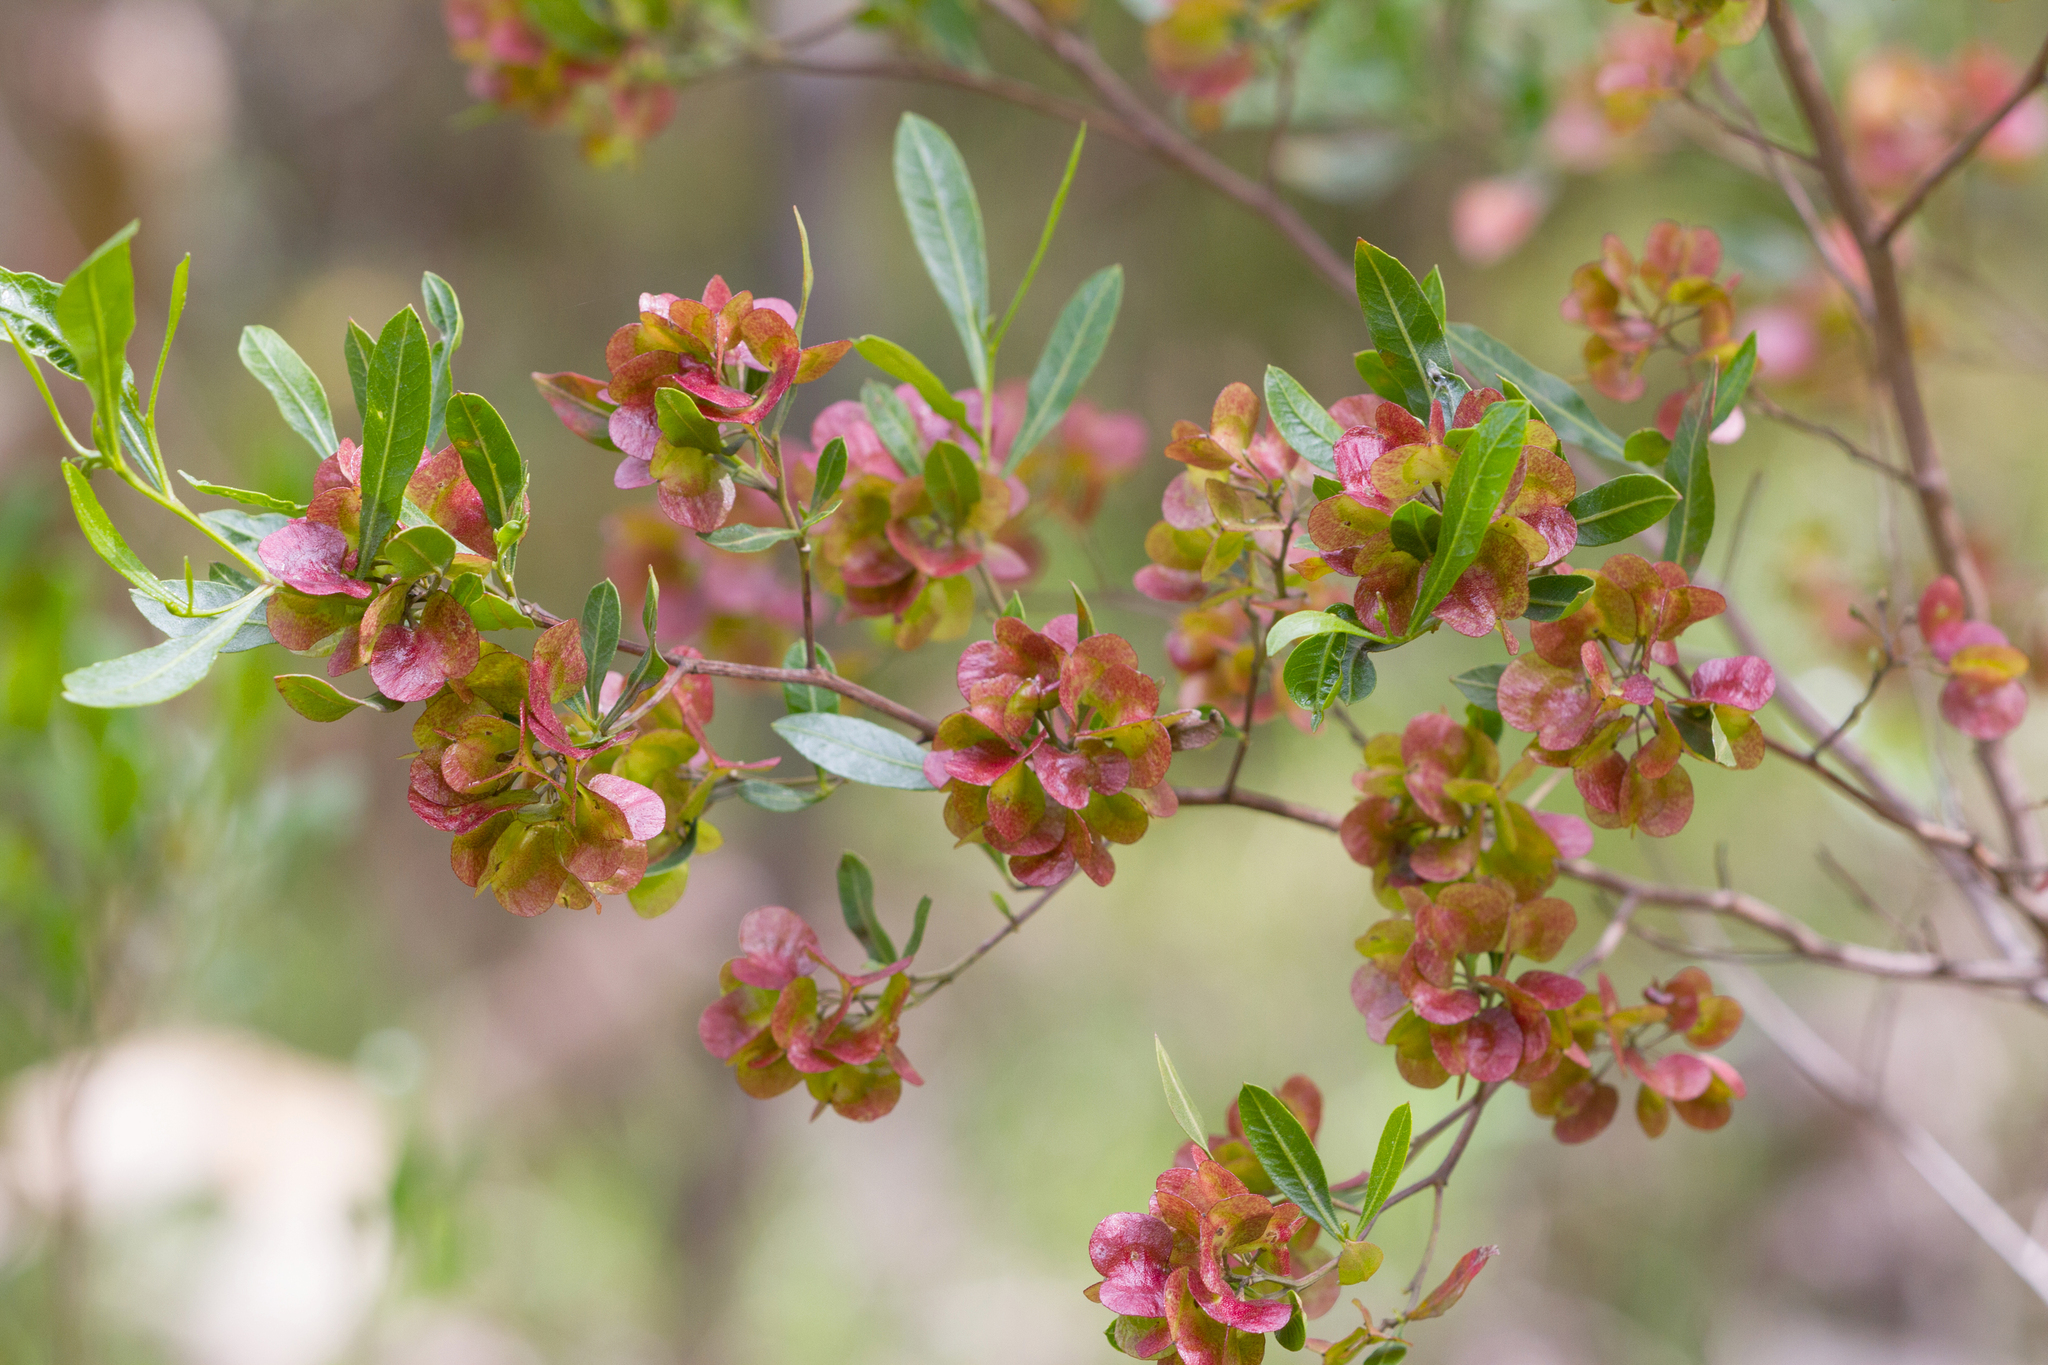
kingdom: Plantae
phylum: Tracheophyta
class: Magnoliopsida
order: Sapindales
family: Sapindaceae
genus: Dodonaea
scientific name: Dodonaea viscosa
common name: Hopbush
